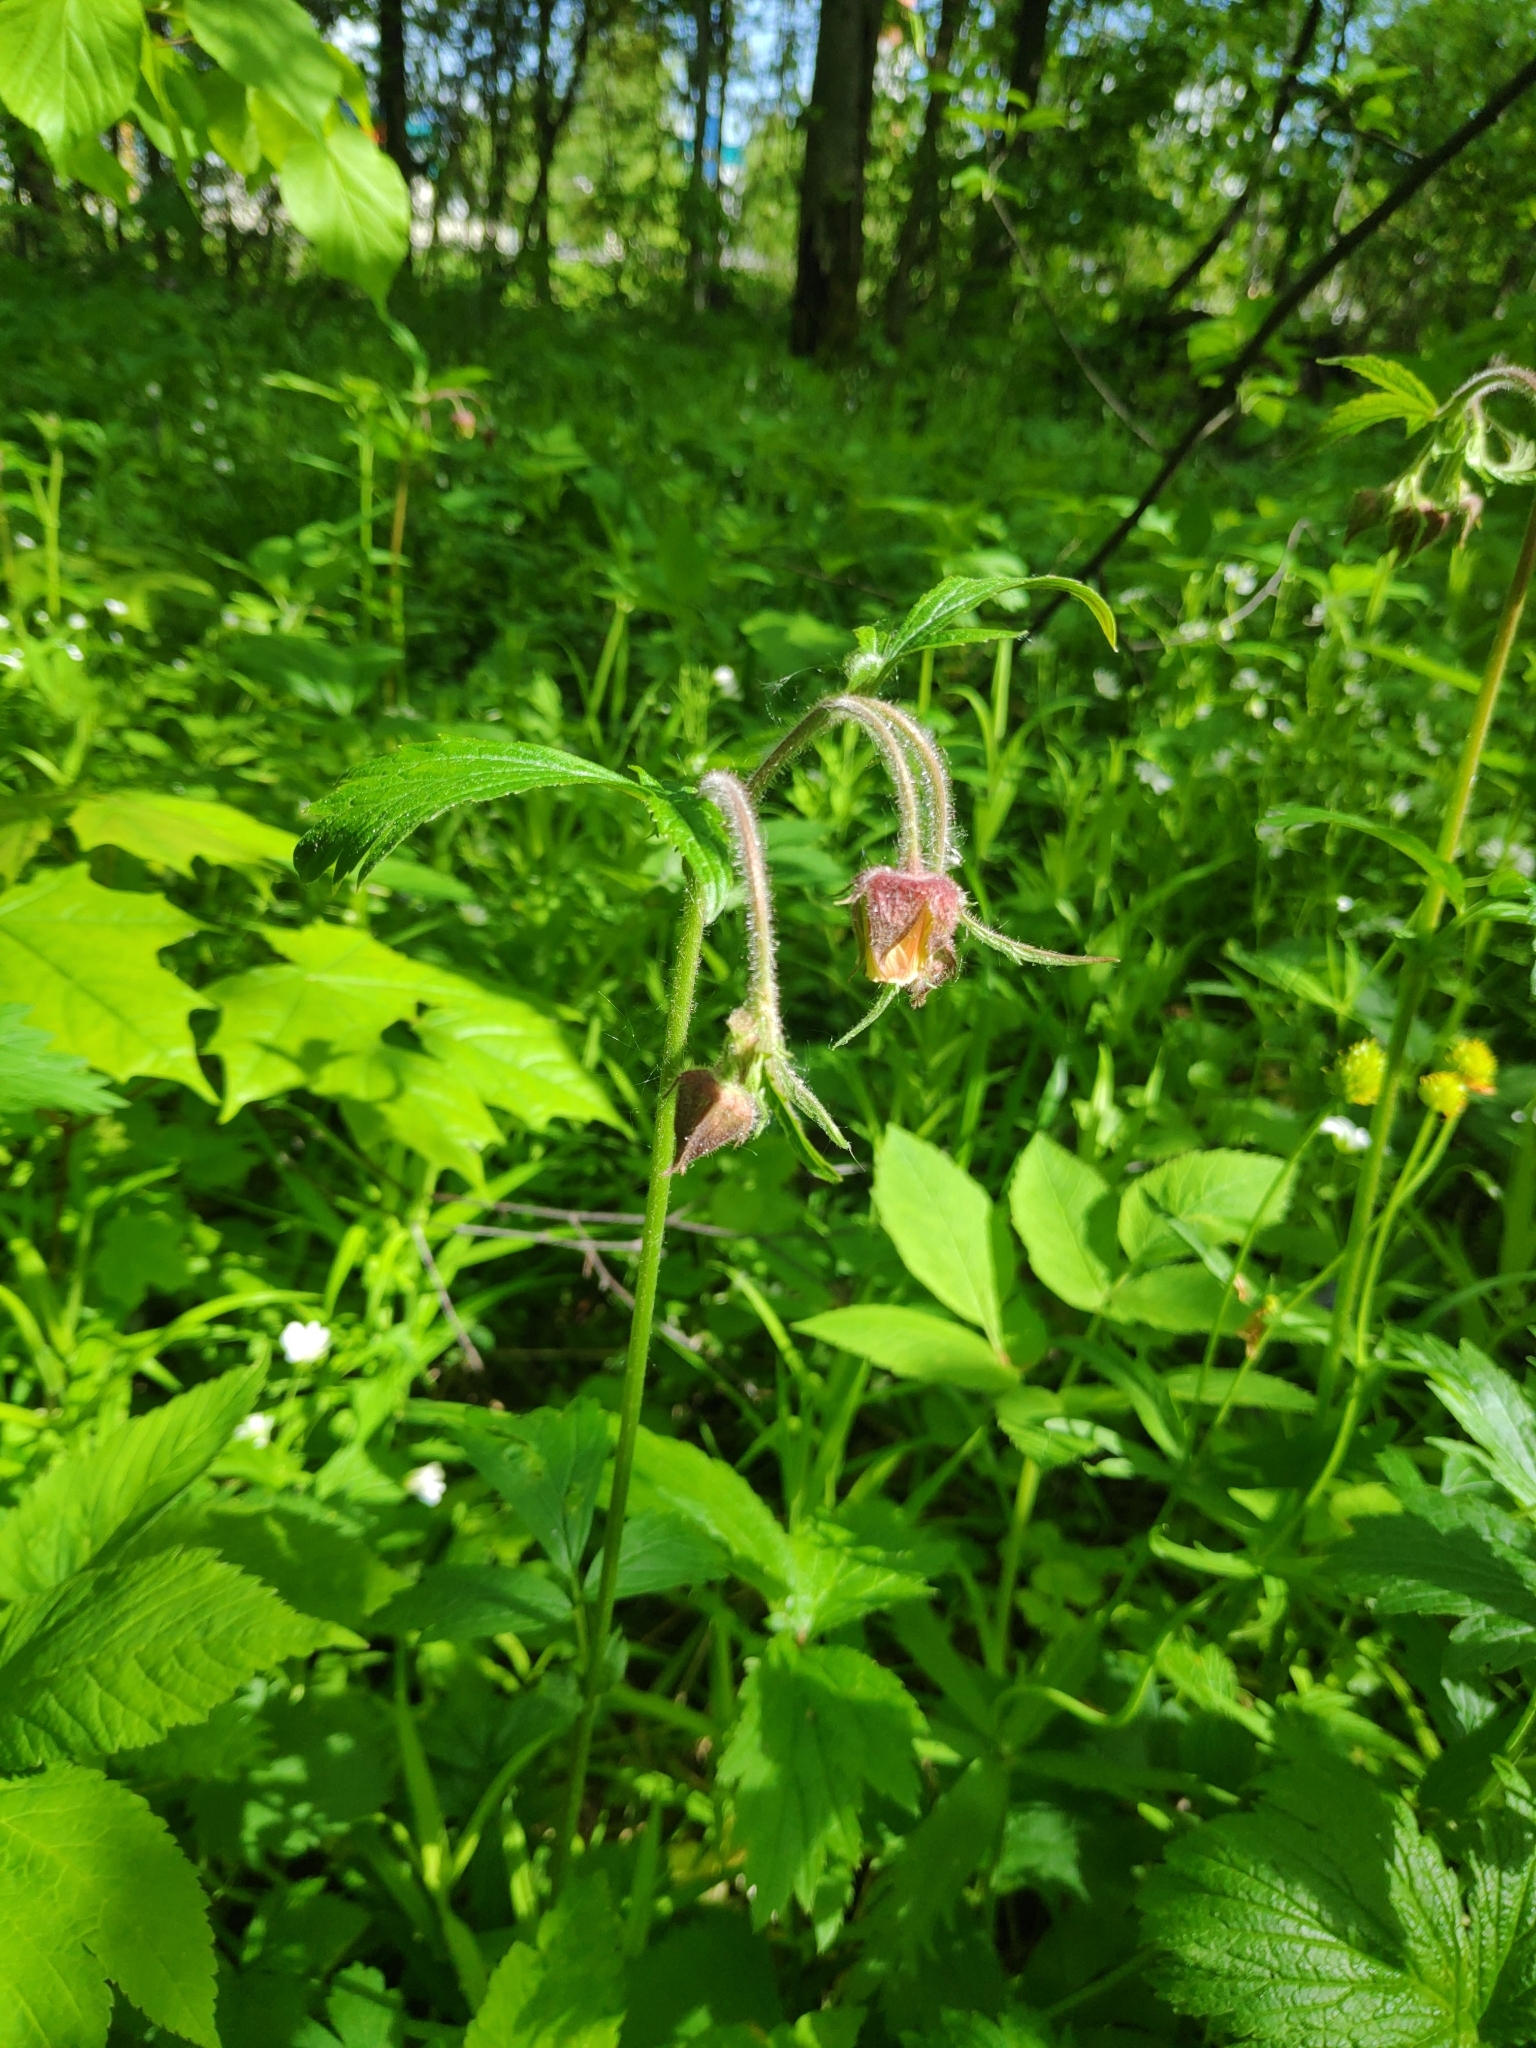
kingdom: Plantae
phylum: Tracheophyta
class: Magnoliopsida
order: Rosales
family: Rosaceae
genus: Geum
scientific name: Geum rivale
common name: Water avens
